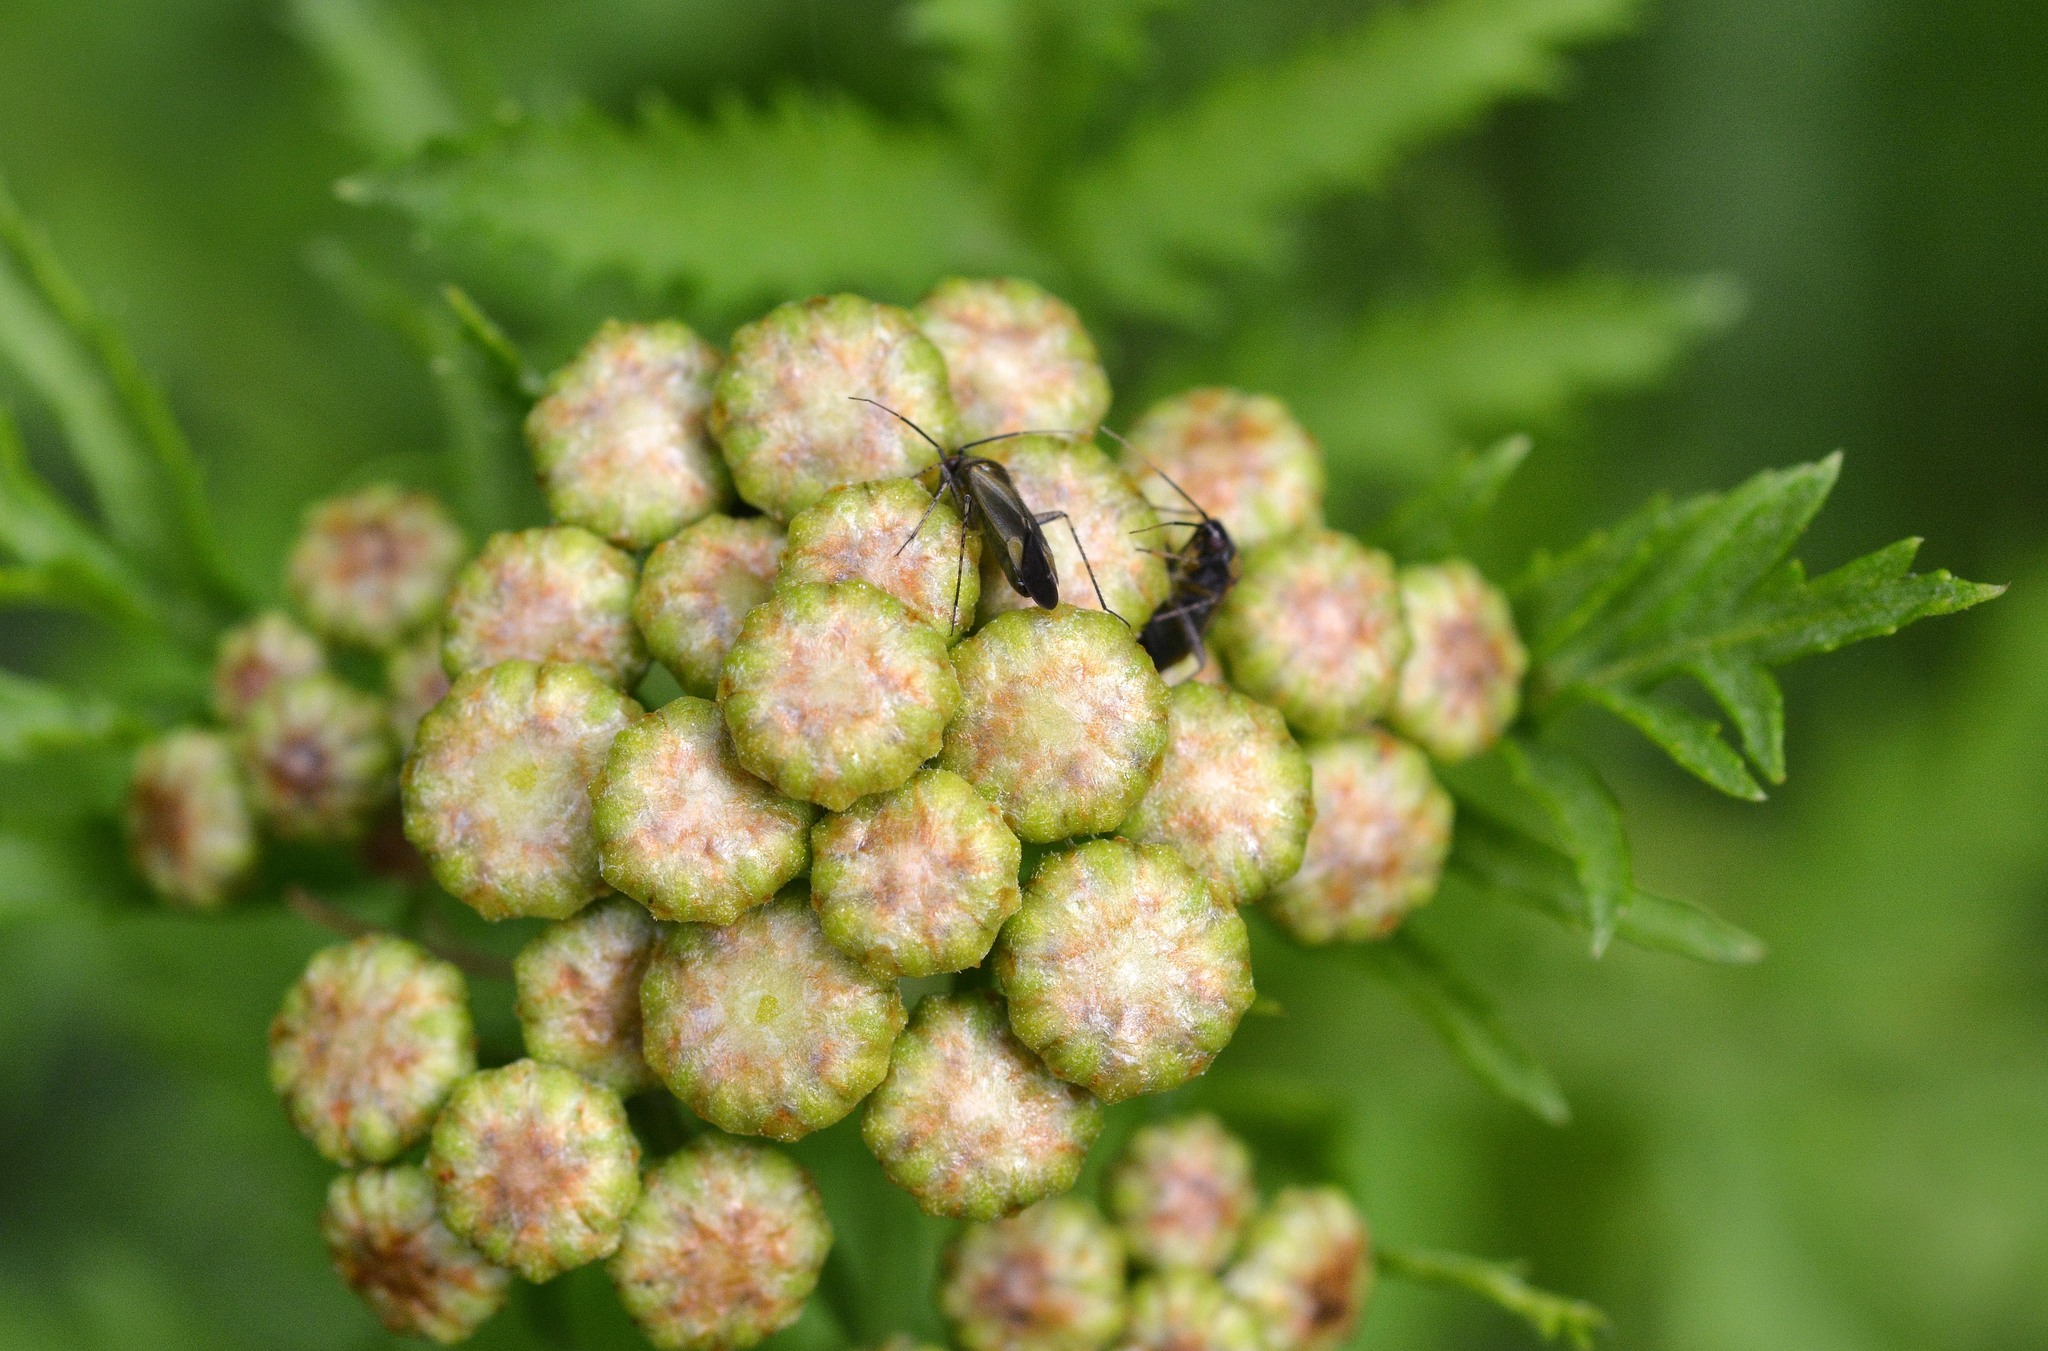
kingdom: Animalia
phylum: Arthropoda
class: Insecta
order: Hemiptera
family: Miridae
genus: Plagiognathus
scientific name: Plagiognathus arbustorum
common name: Plant bug
